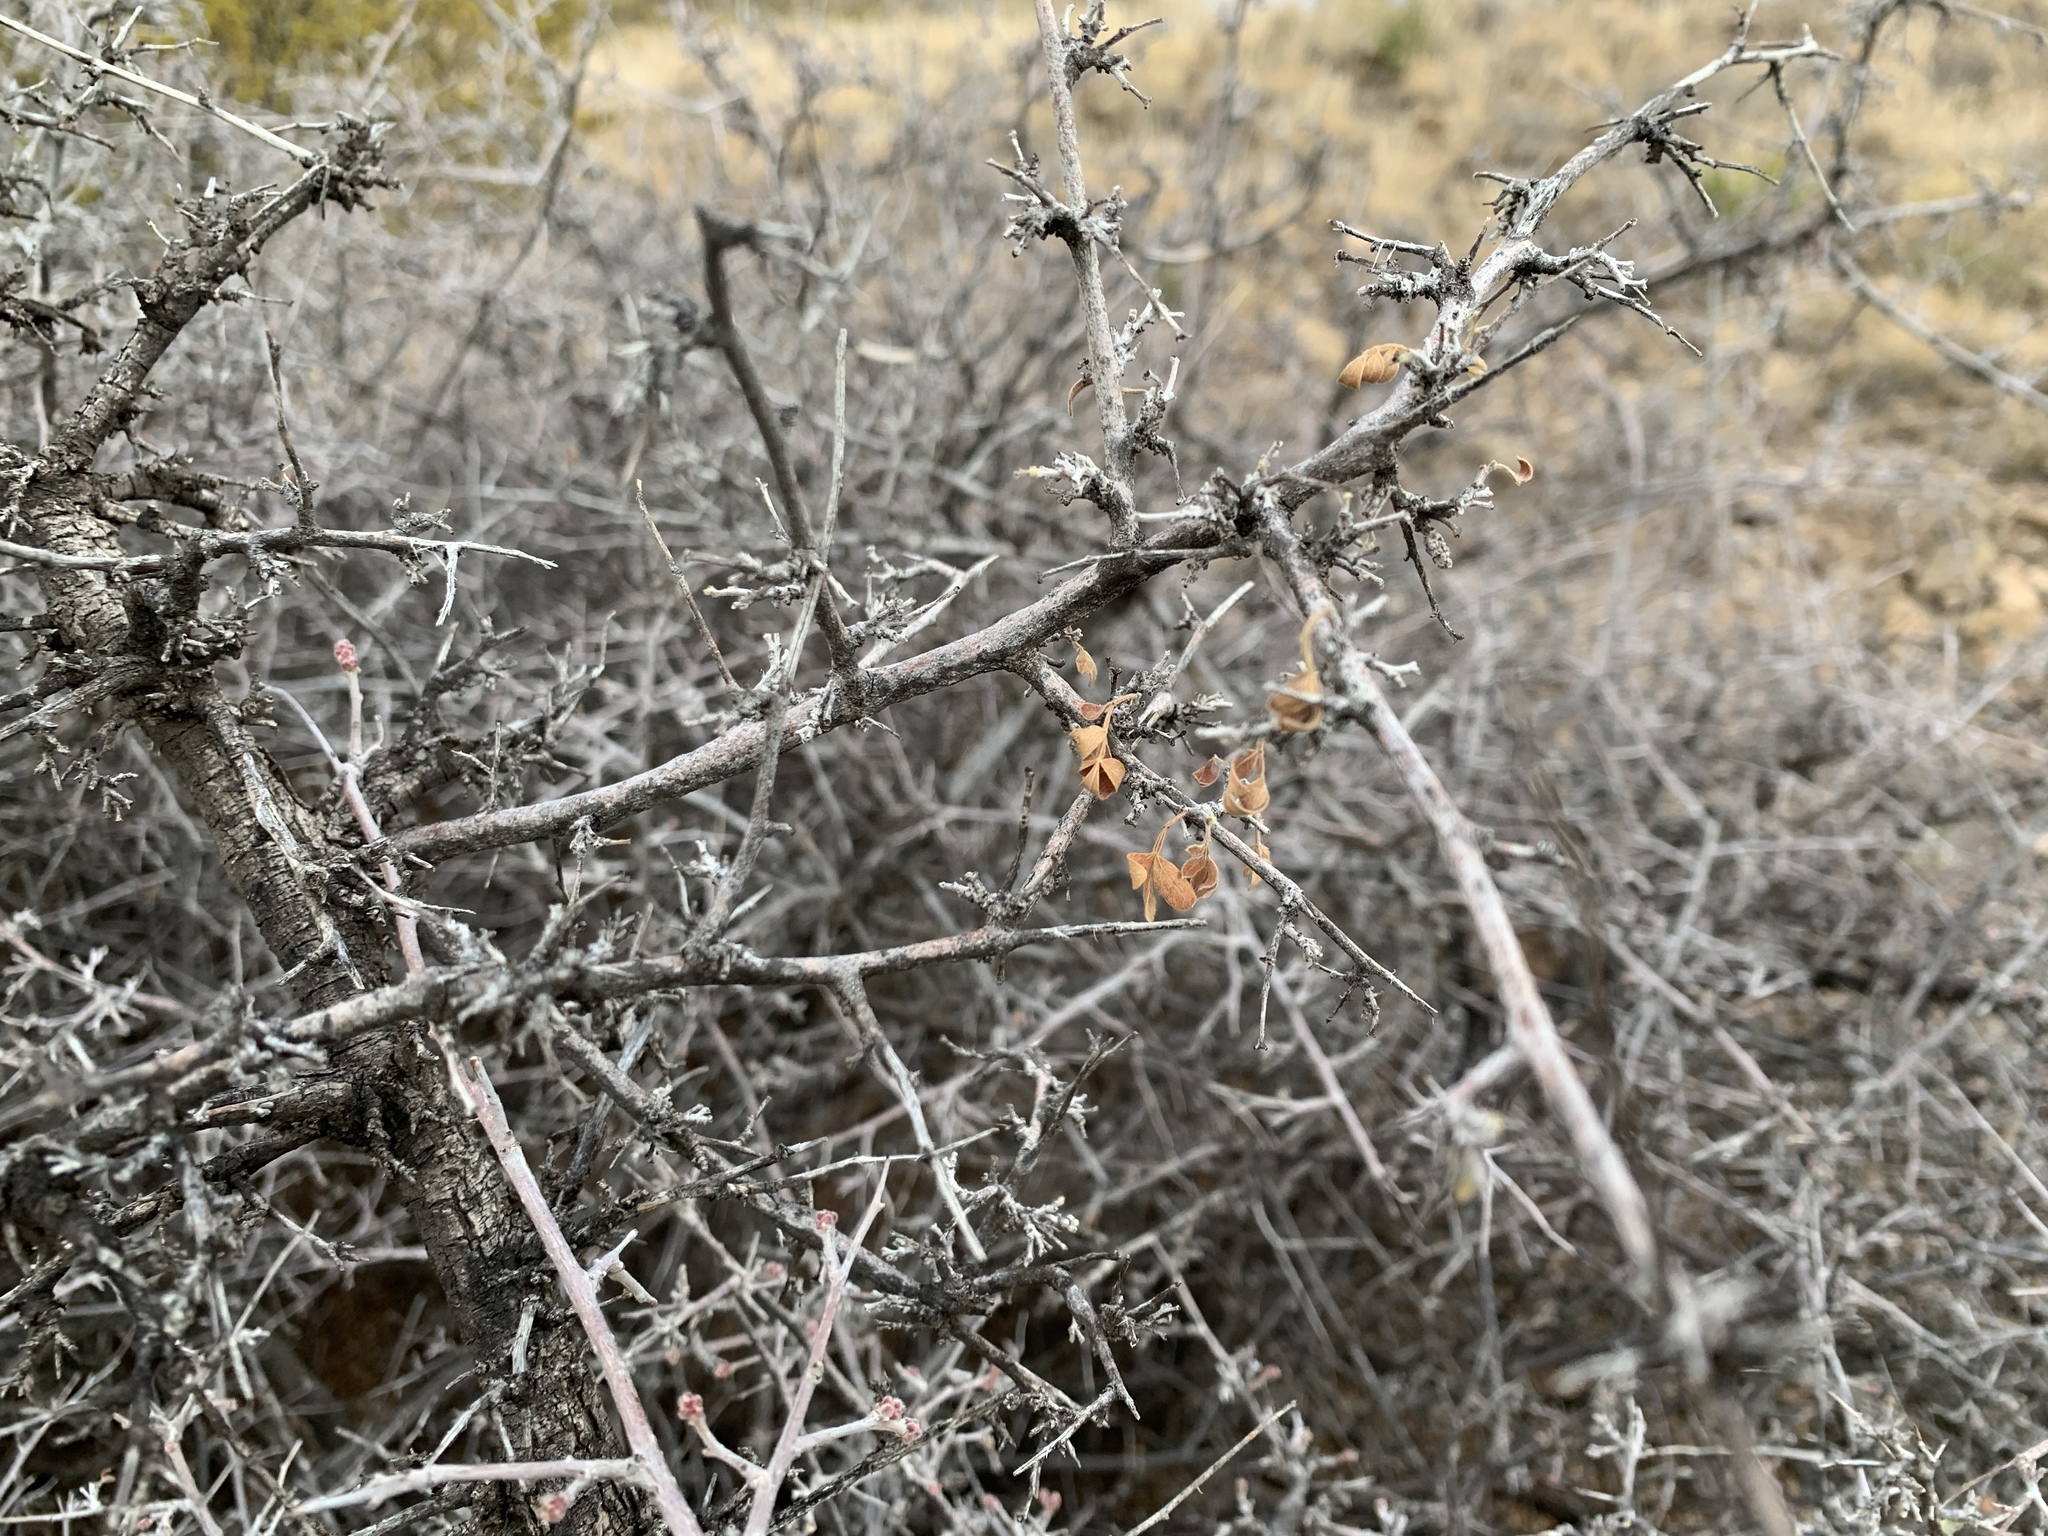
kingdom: Plantae
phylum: Tracheophyta
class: Magnoliopsida
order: Sapindales
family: Anacardiaceae
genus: Rhus
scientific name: Rhus microphylla
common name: Desert sumac
